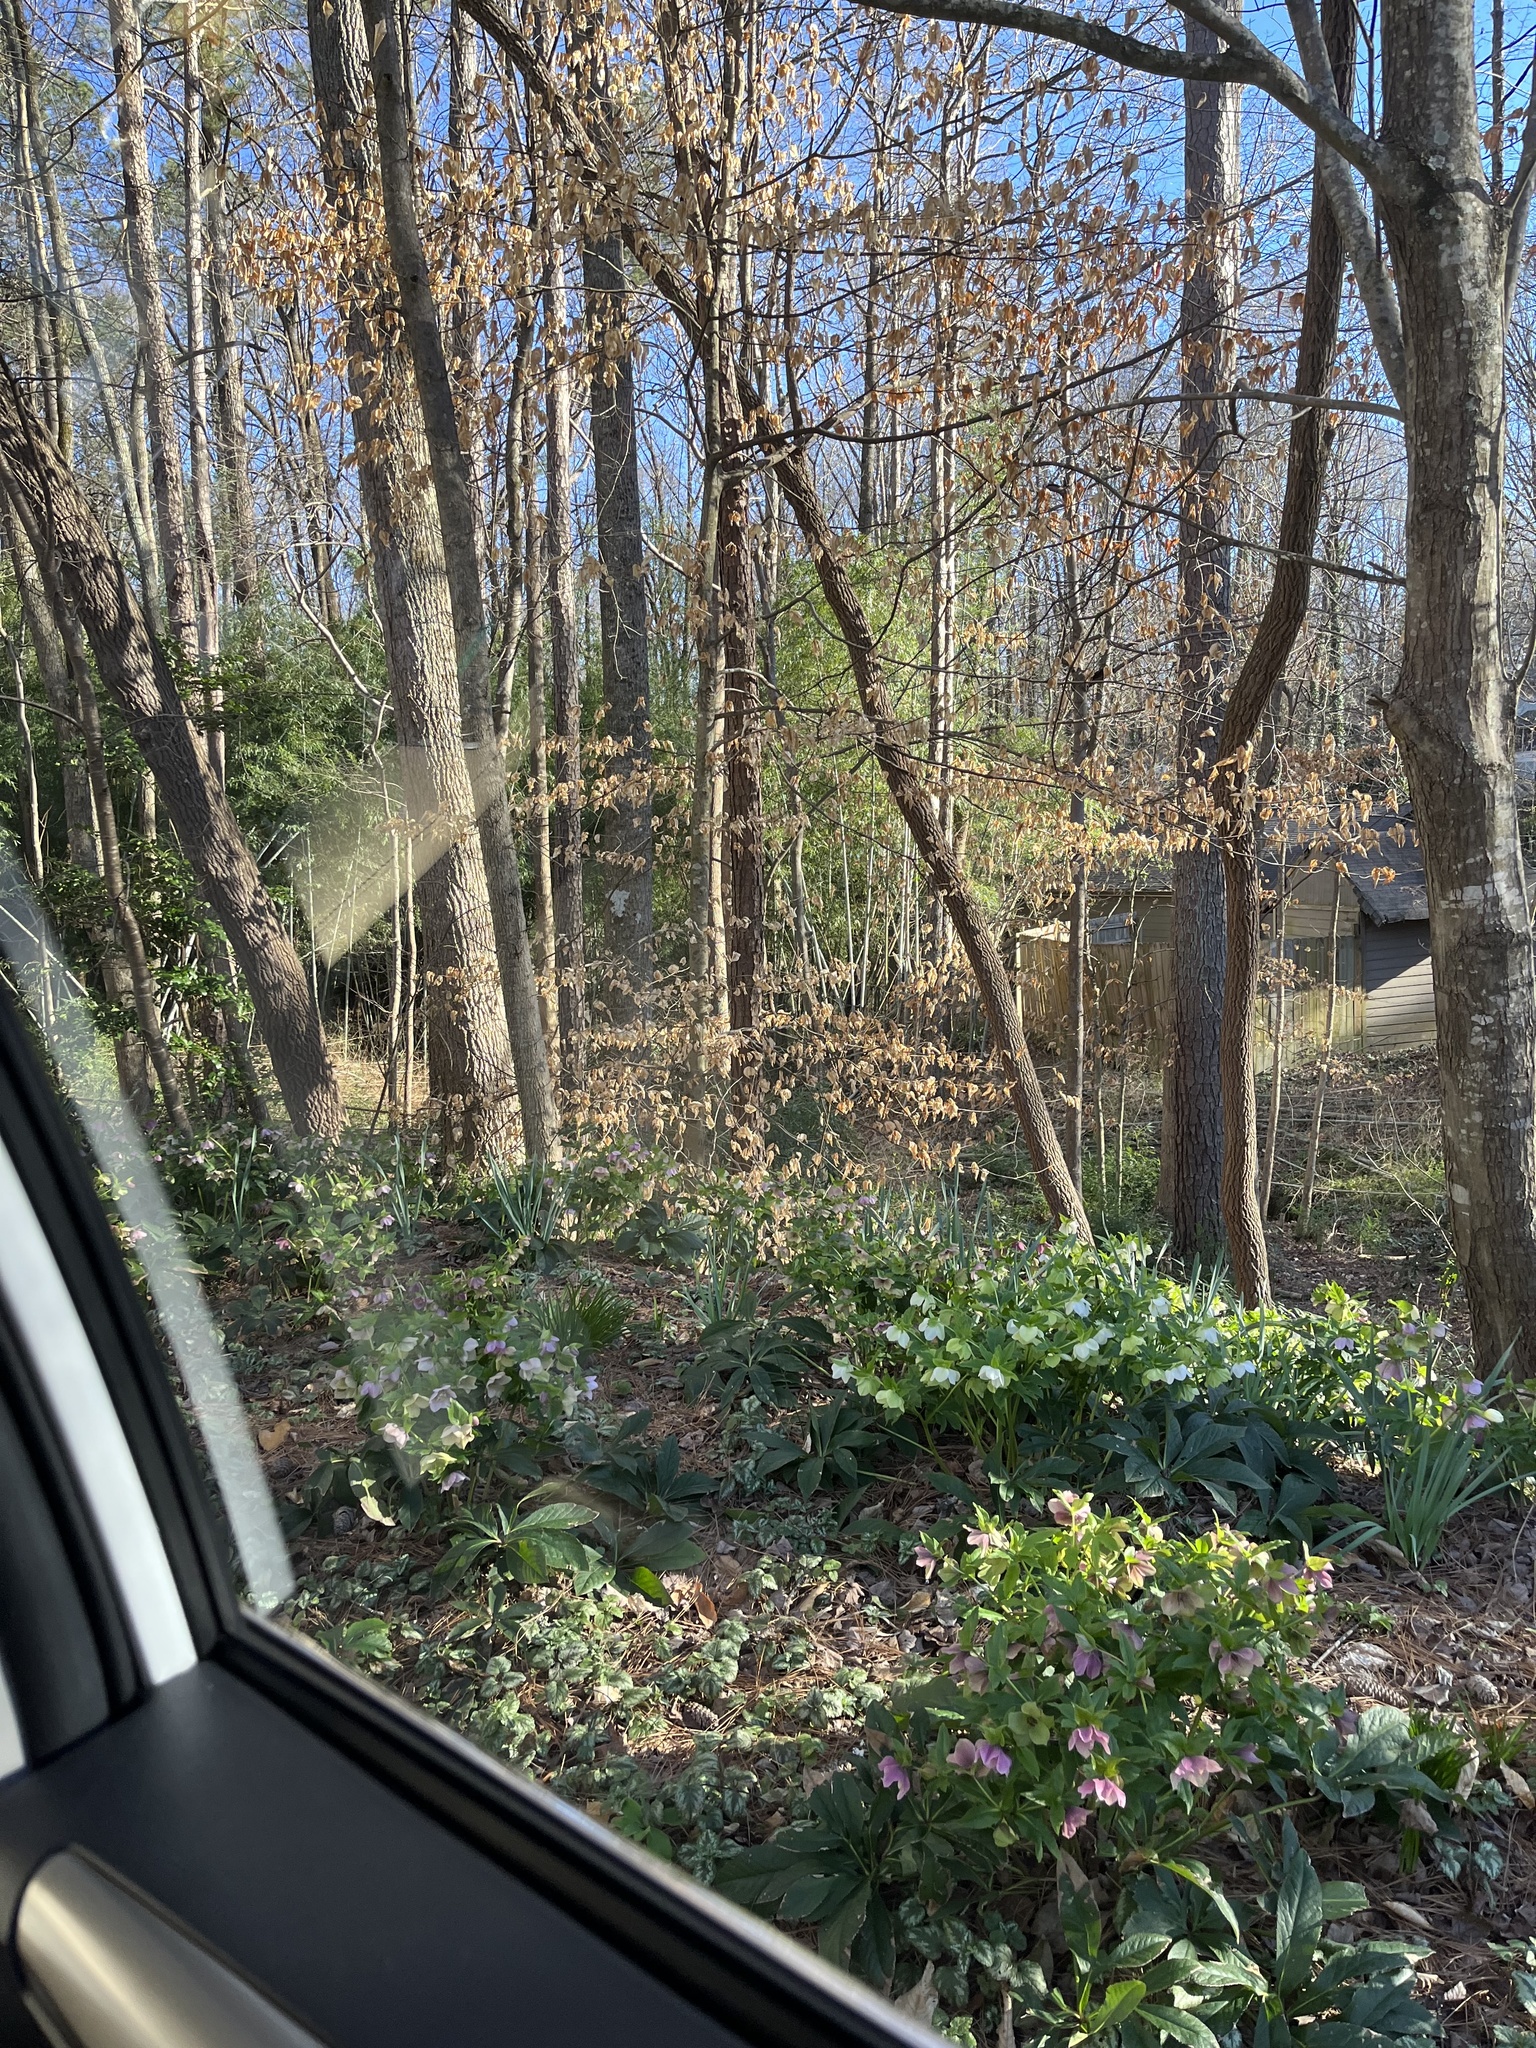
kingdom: Plantae
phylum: Tracheophyta
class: Magnoliopsida
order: Fagales
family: Fagaceae
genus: Fagus
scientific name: Fagus grandifolia
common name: American beech
